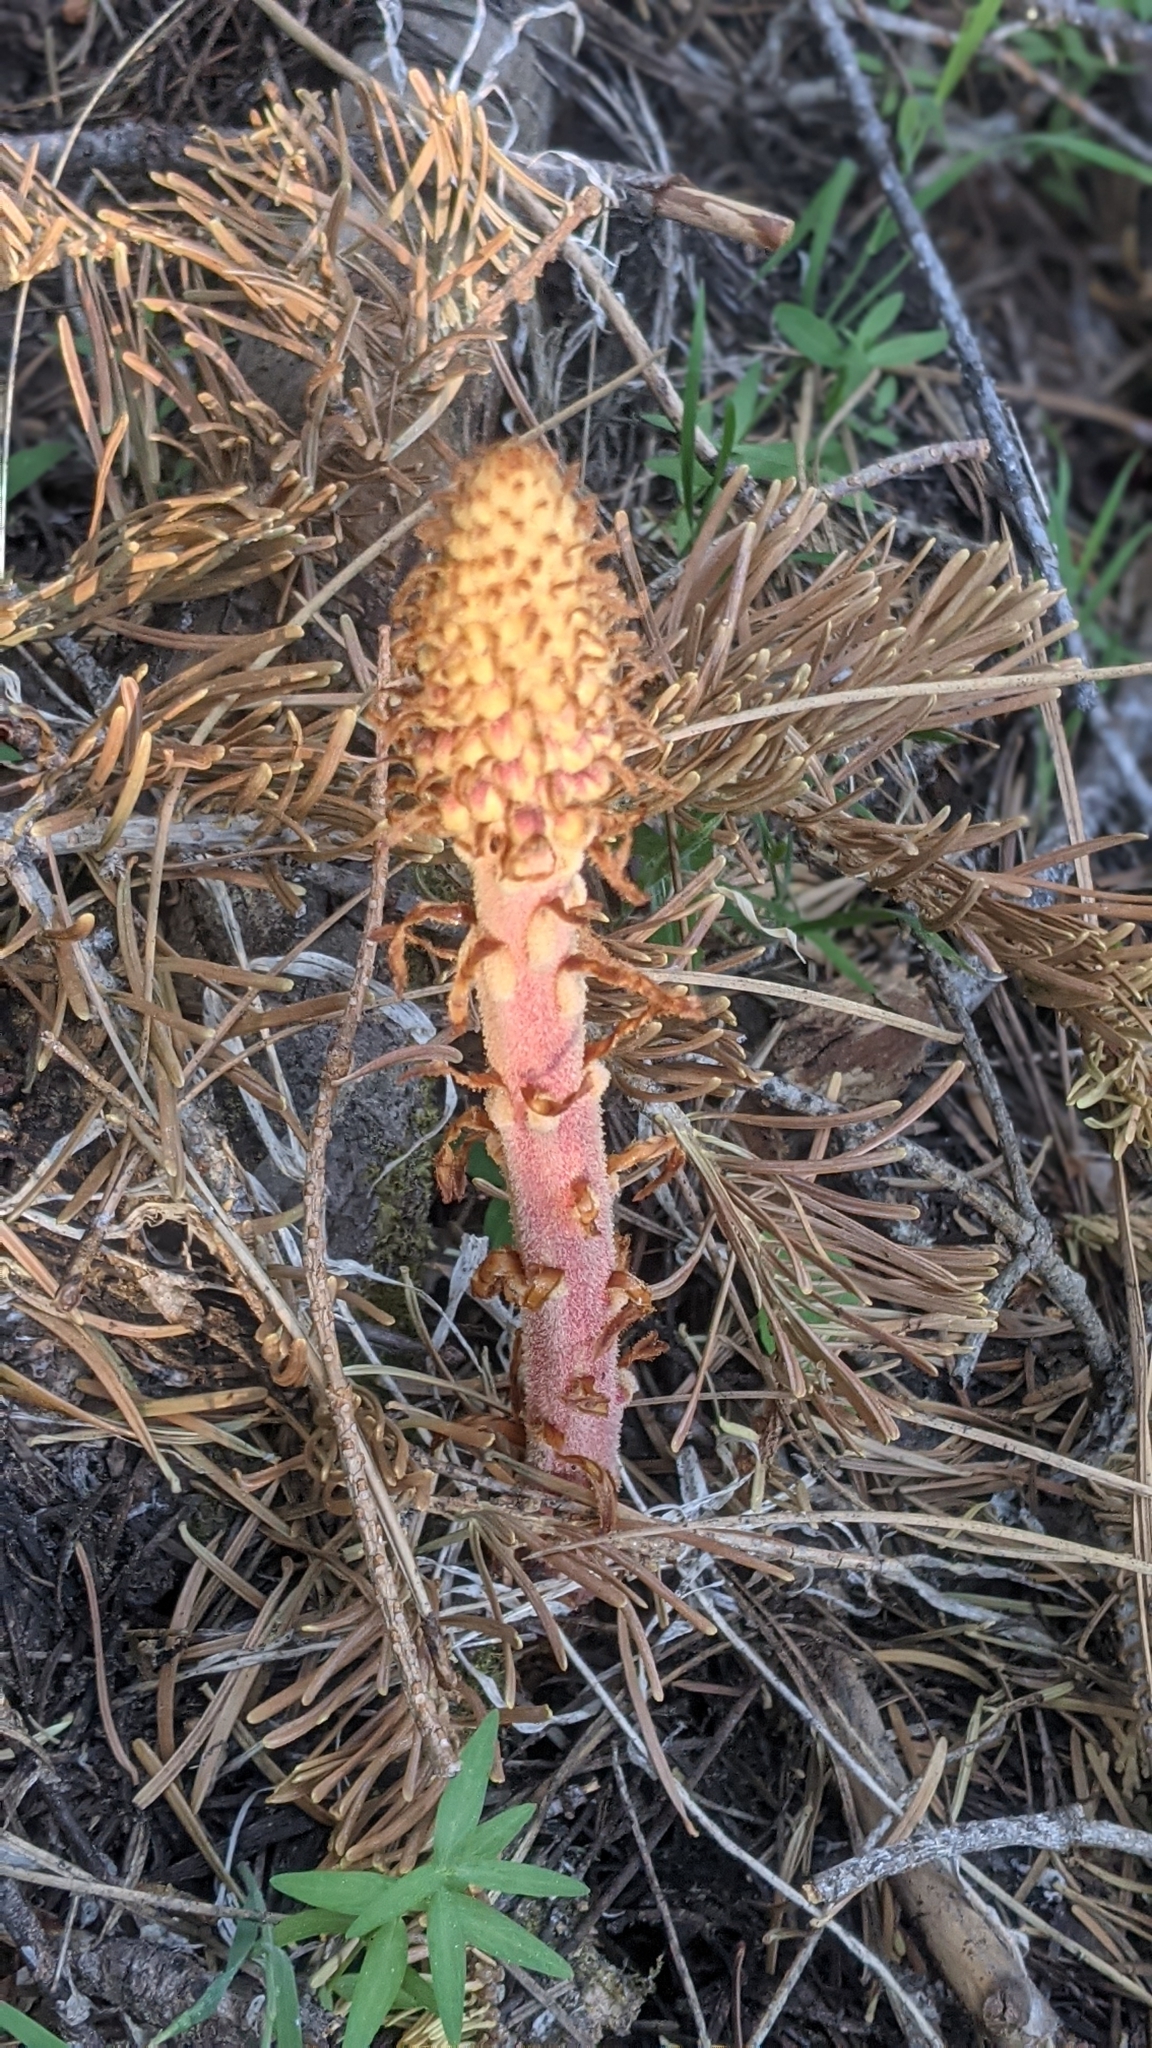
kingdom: Plantae
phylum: Tracheophyta
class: Magnoliopsida
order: Ericales
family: Ericaceae
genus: Pterospora
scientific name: Pterospora andromedea
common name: Giant bird's-nest
